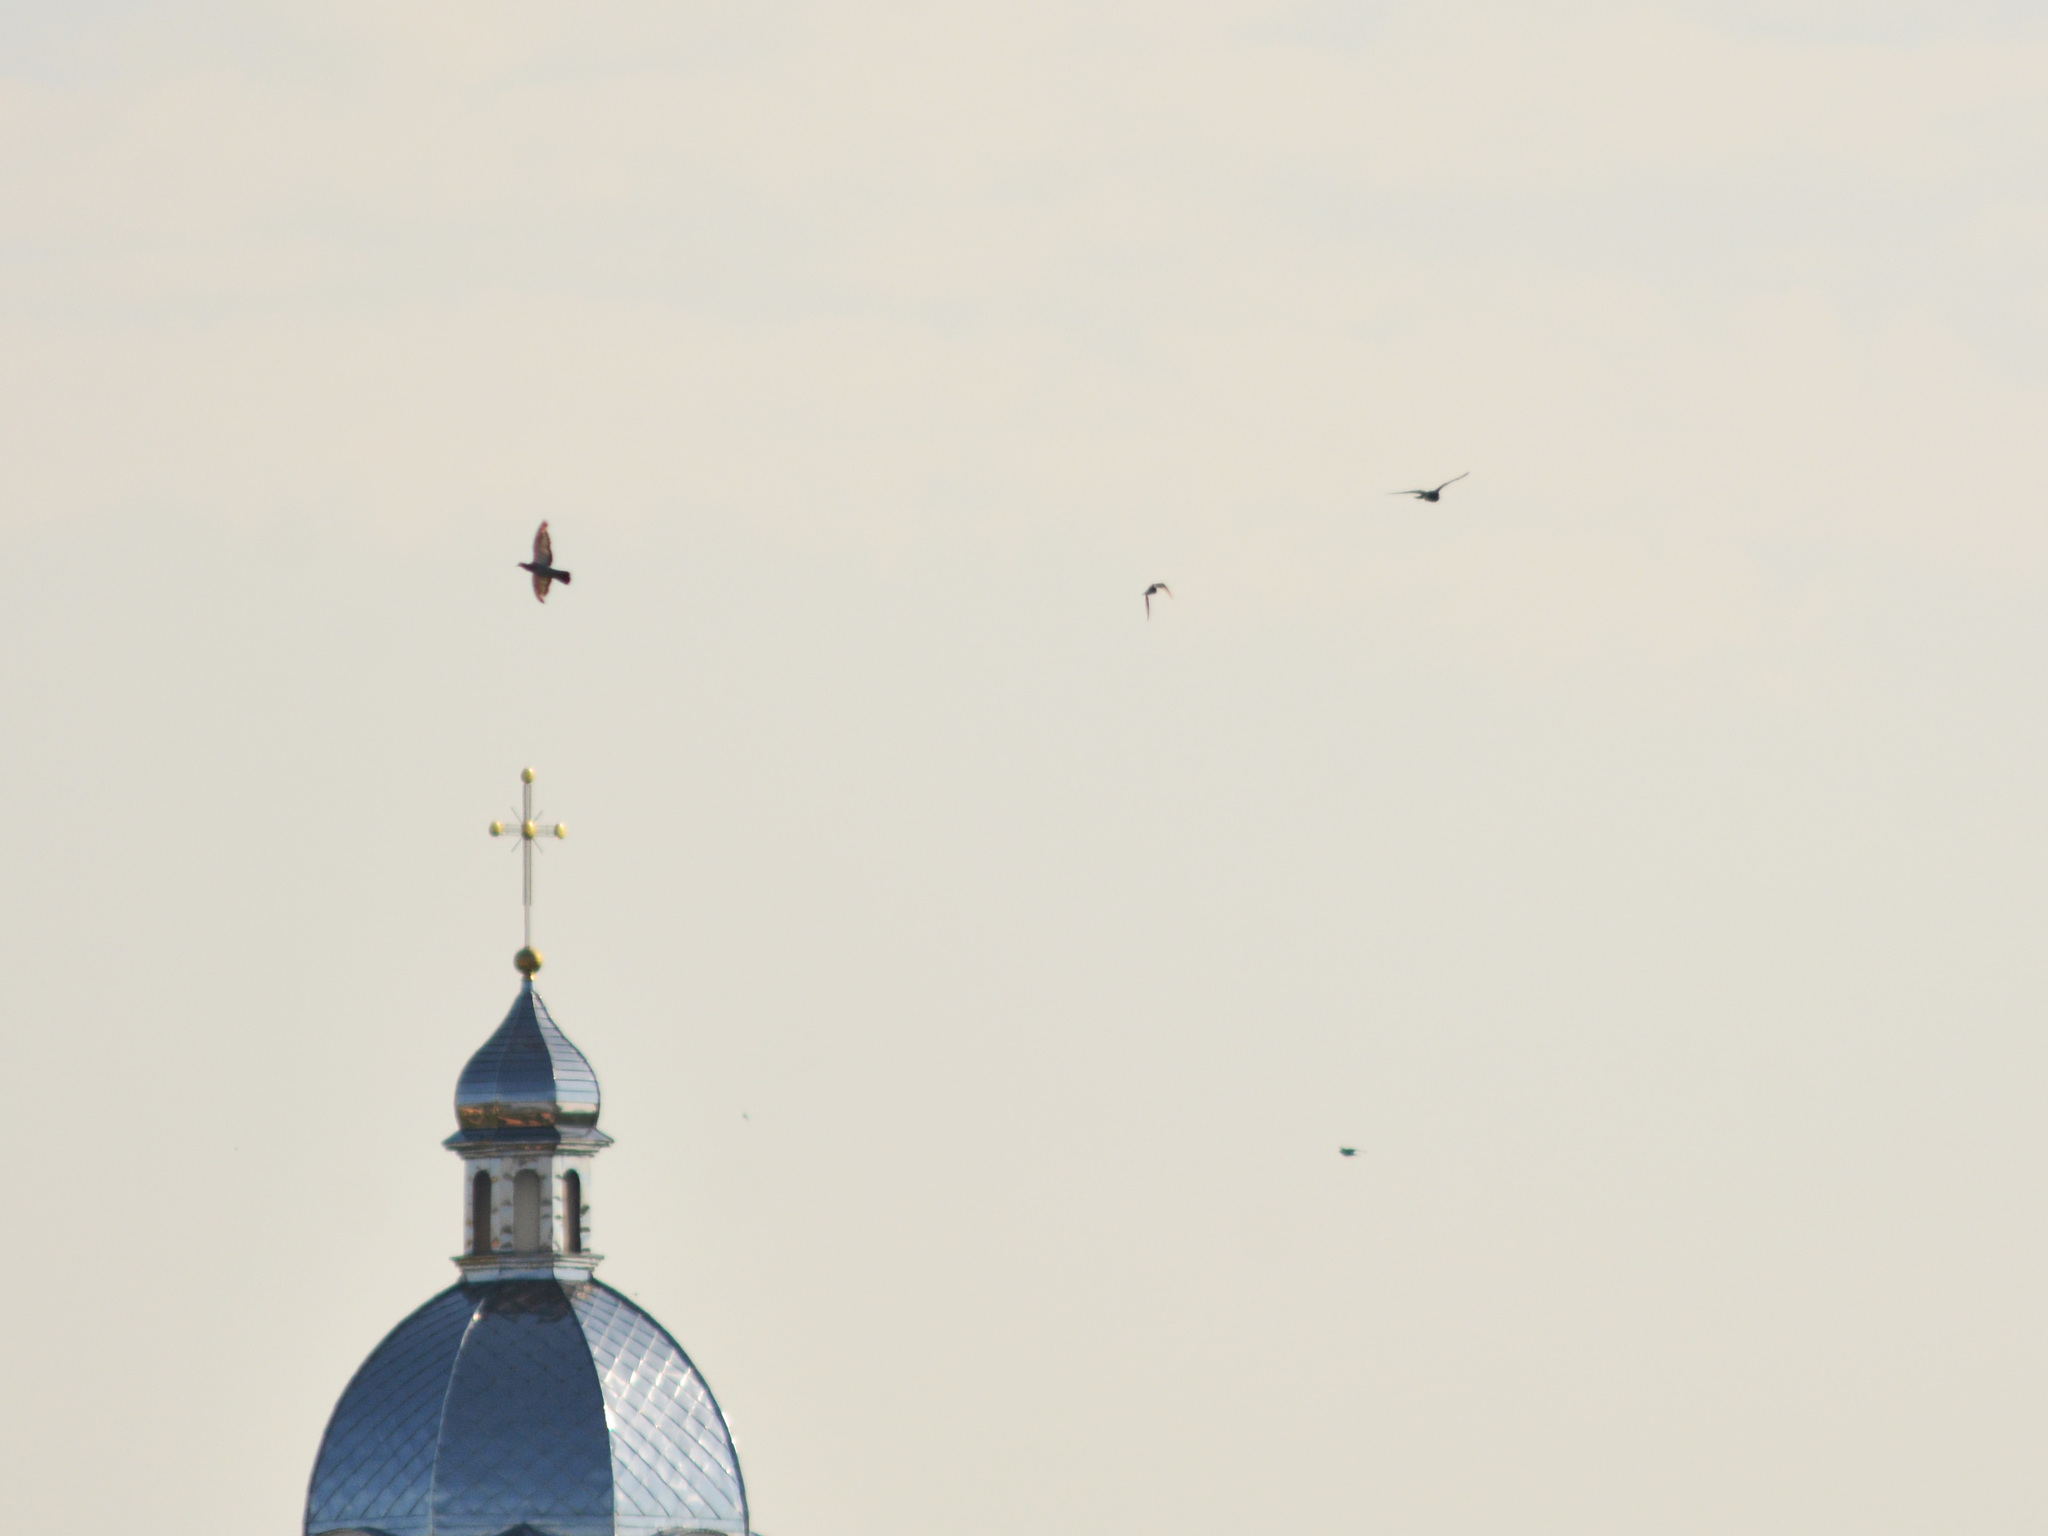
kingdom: Animalia
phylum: Chordata
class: Aves
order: Columbiformes
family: Columbidae
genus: Columba
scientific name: Columba livia
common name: Rock pigeon
